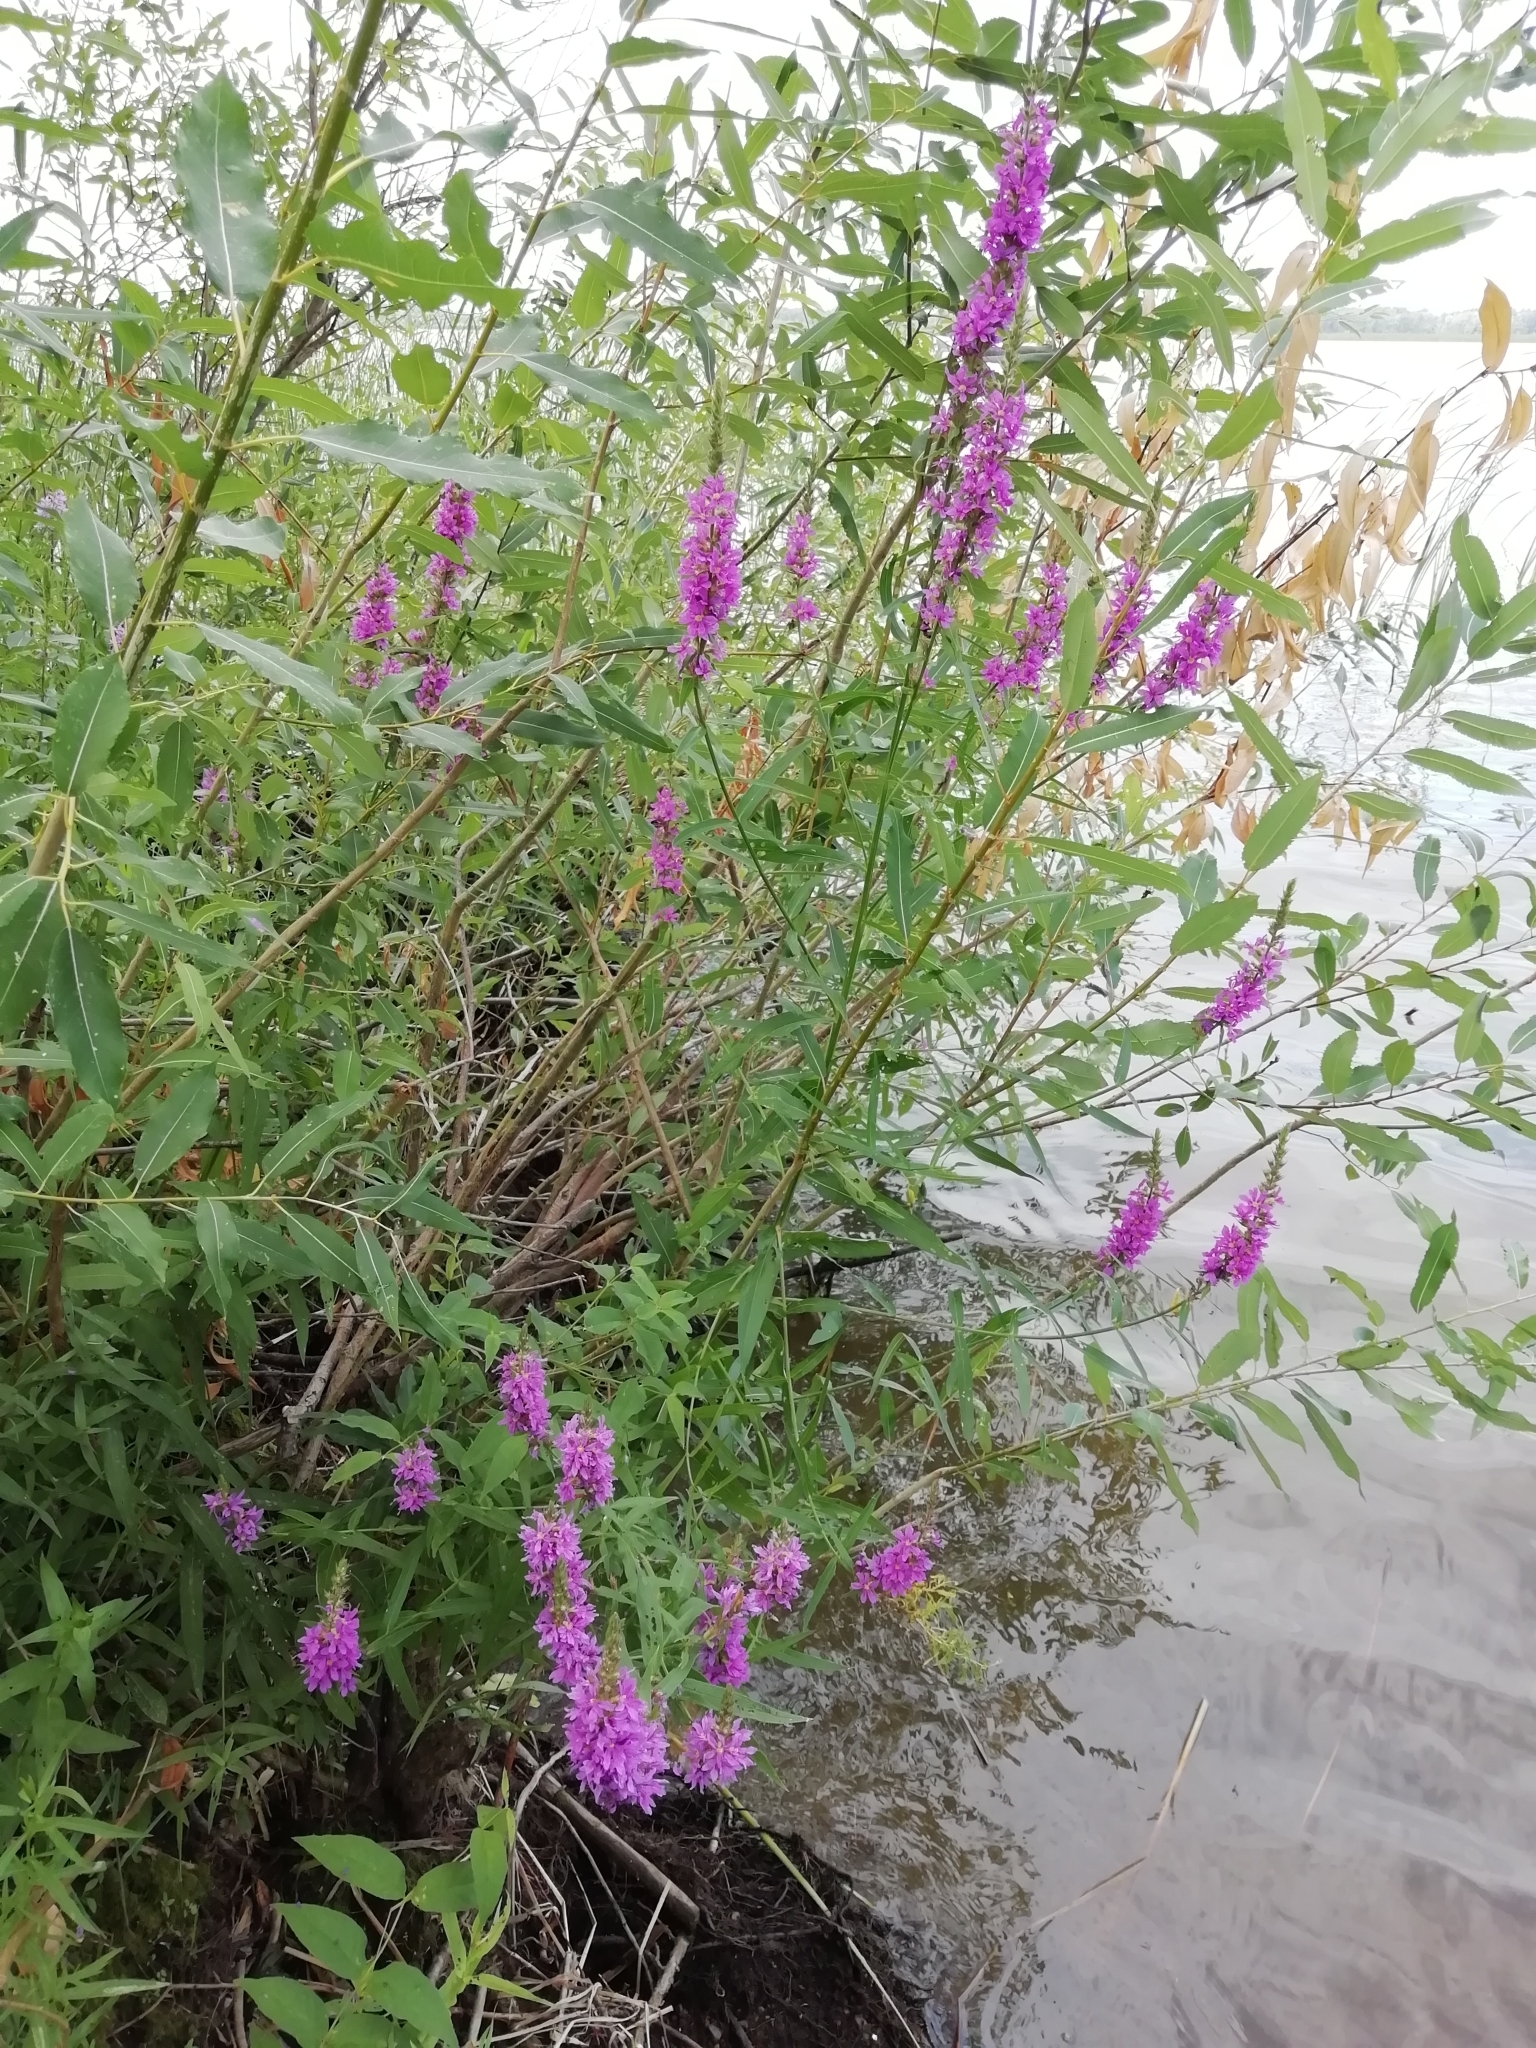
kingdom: Plantae
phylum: Tracheophyta
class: Magnoliopsida
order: Myrtales
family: Lythraceae
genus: Lythrum
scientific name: Lythrum salicaria
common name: Purple loosestrife
